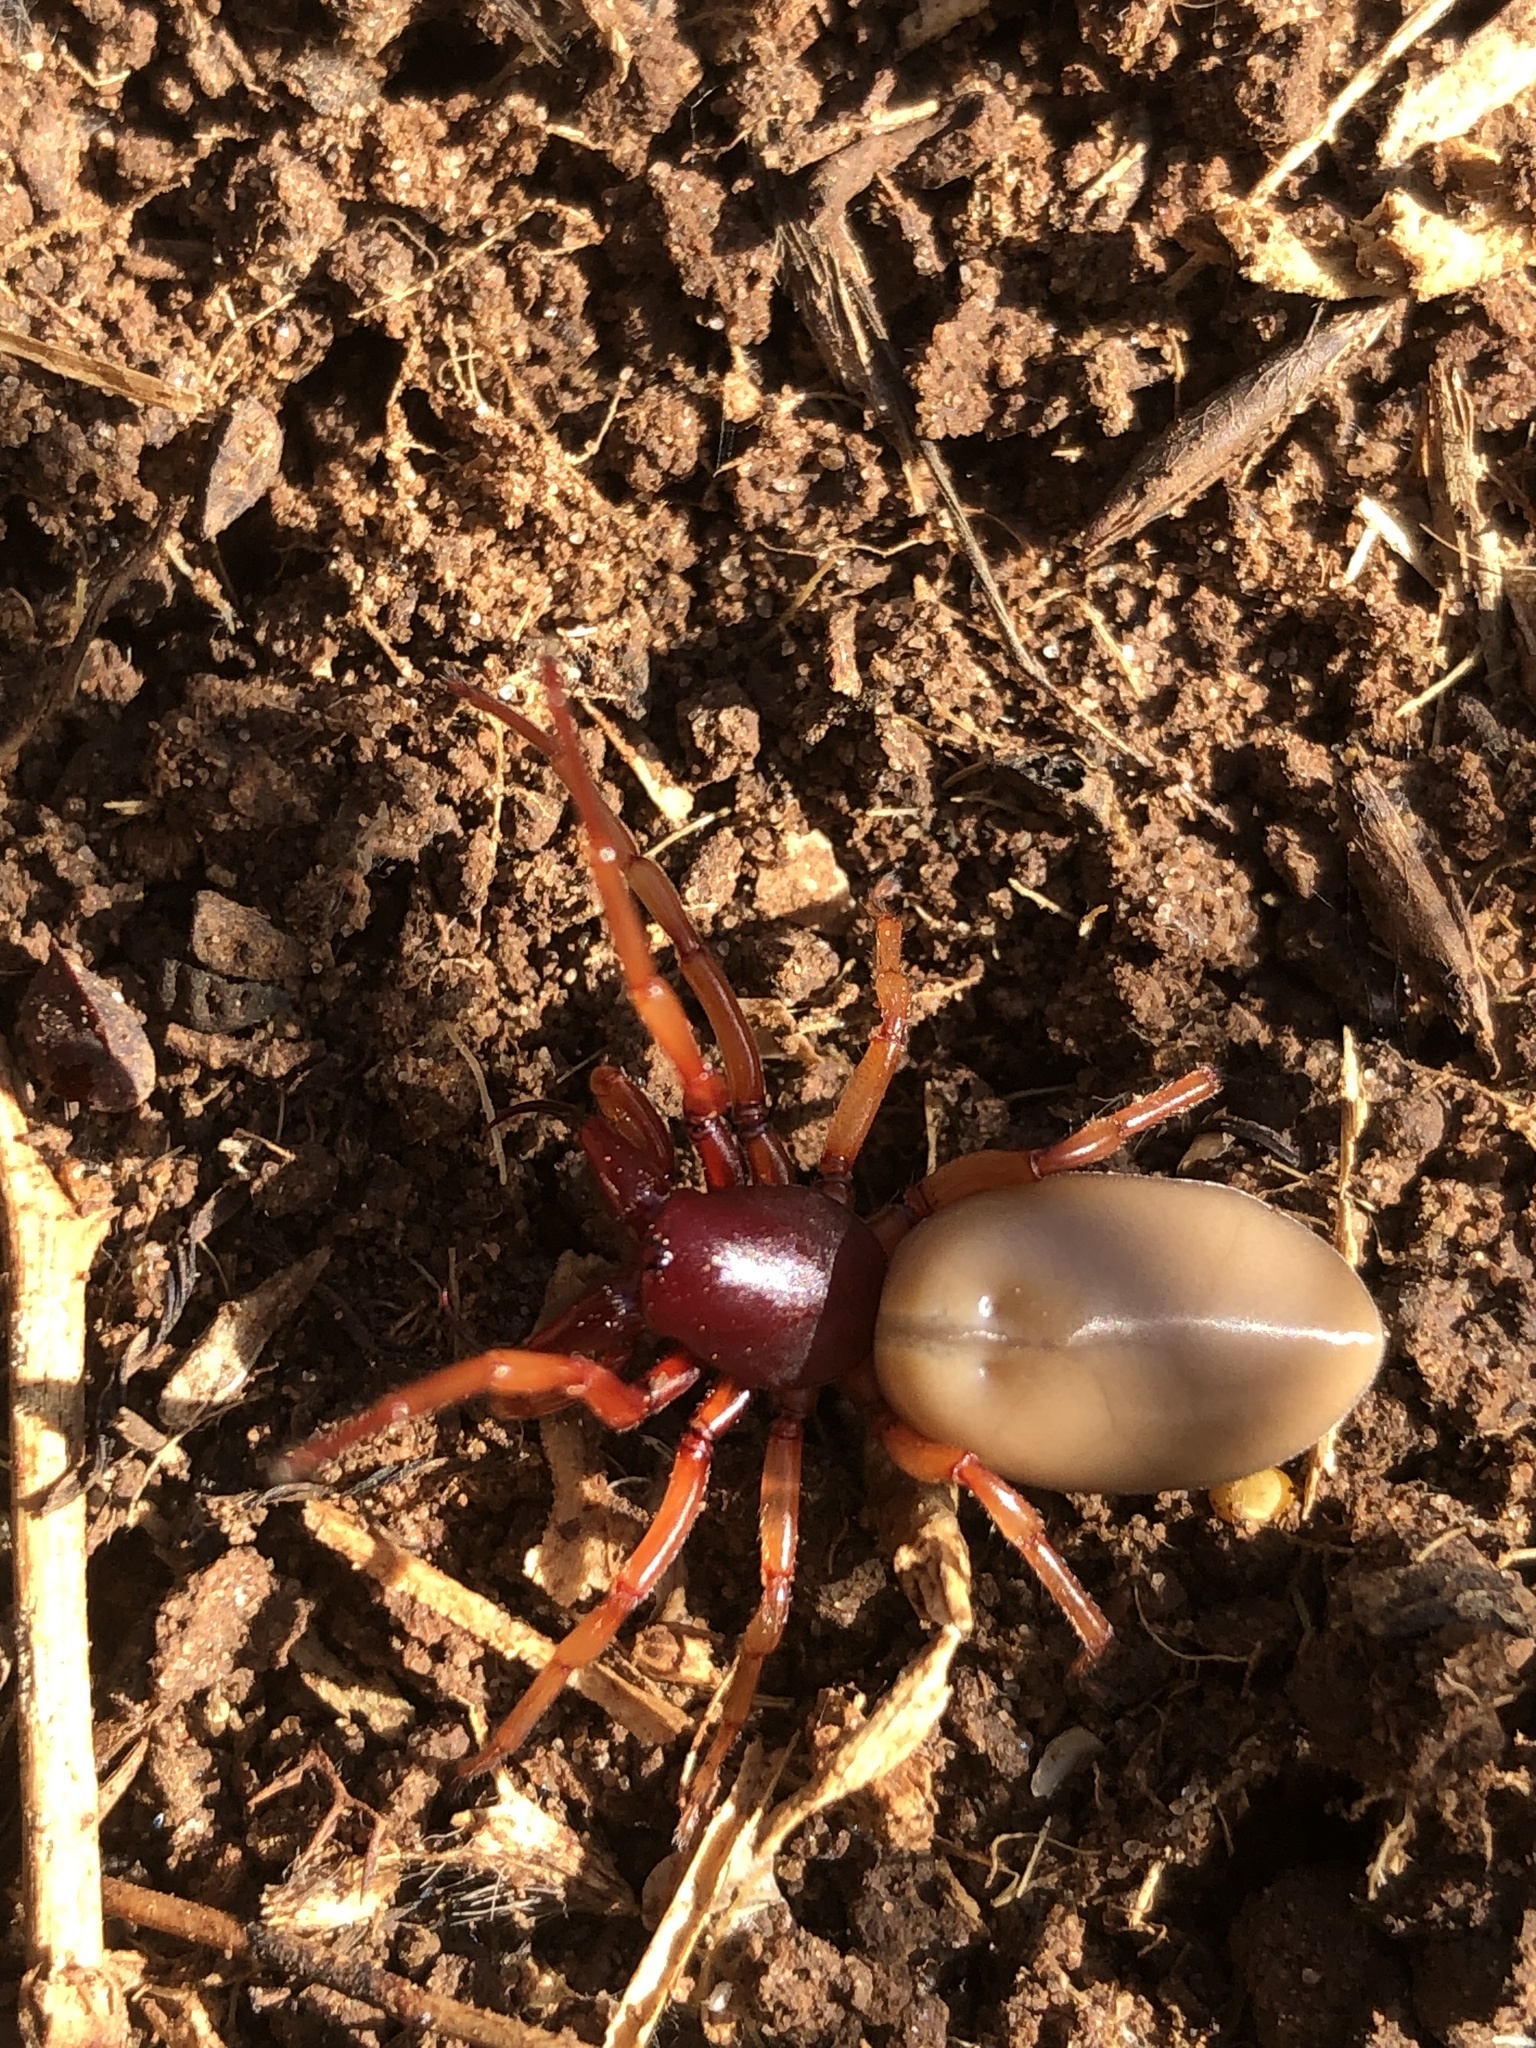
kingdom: Animalia
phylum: Arthropoda
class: Arachnida
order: Araneae
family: Dysderidae
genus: Dysdera
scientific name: Dysdera crocata
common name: Woodlouse spider
